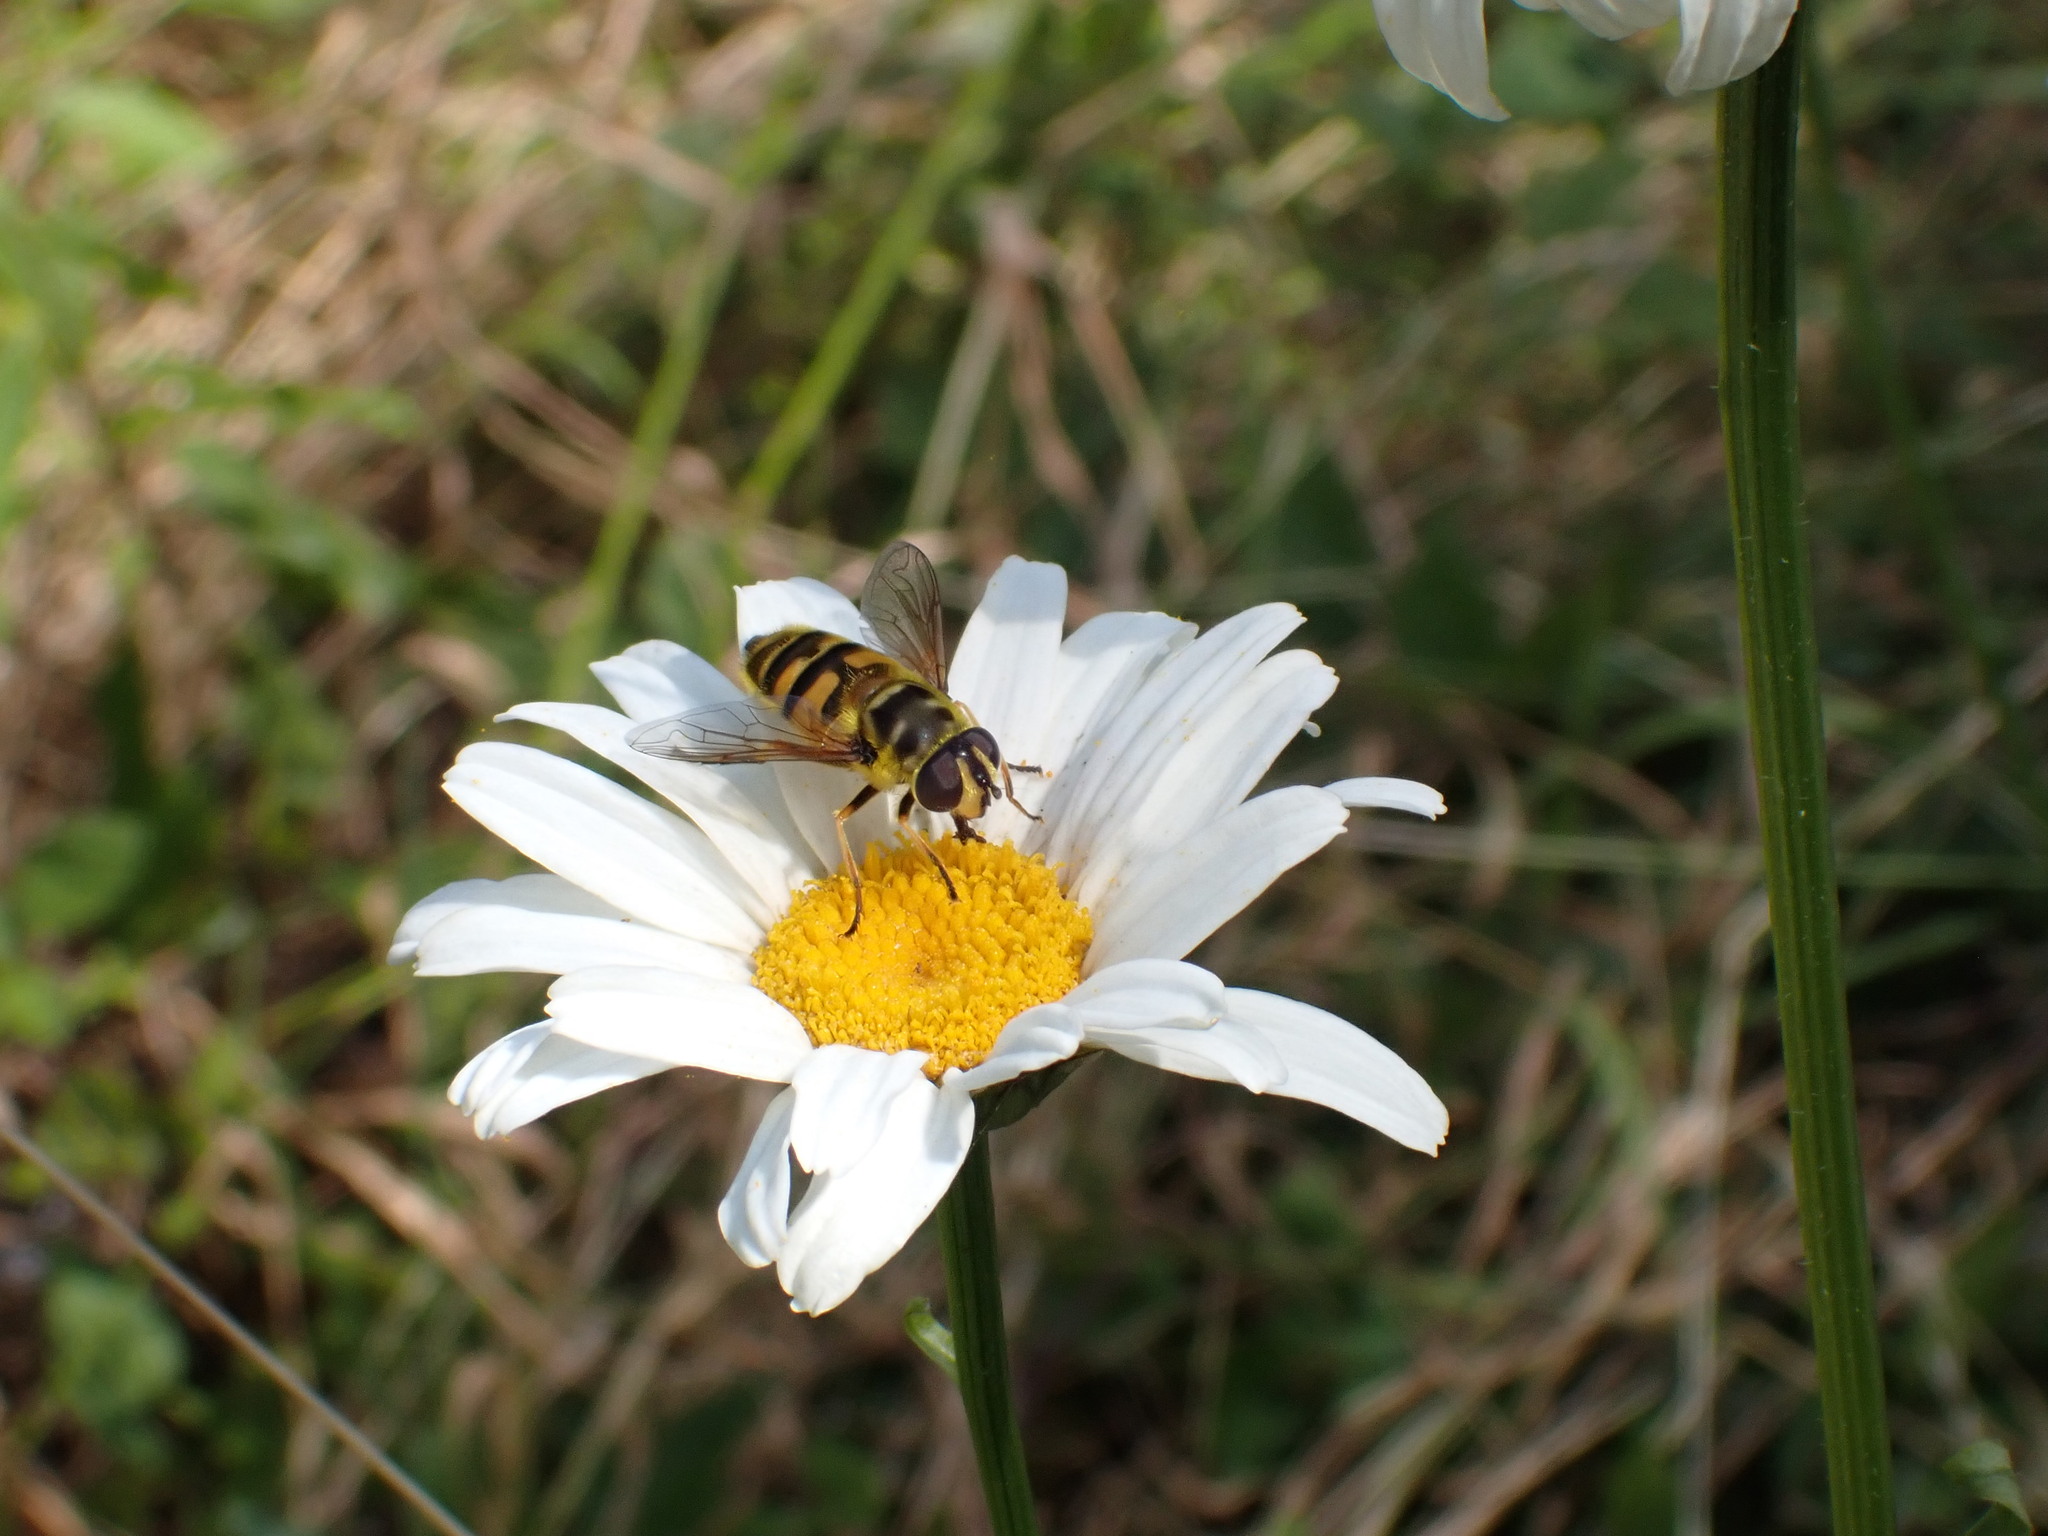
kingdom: Animalia
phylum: Arthropoda
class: Insecta
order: Diptera
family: Syrphidae
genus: Myathropa
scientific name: Myathropa florea
